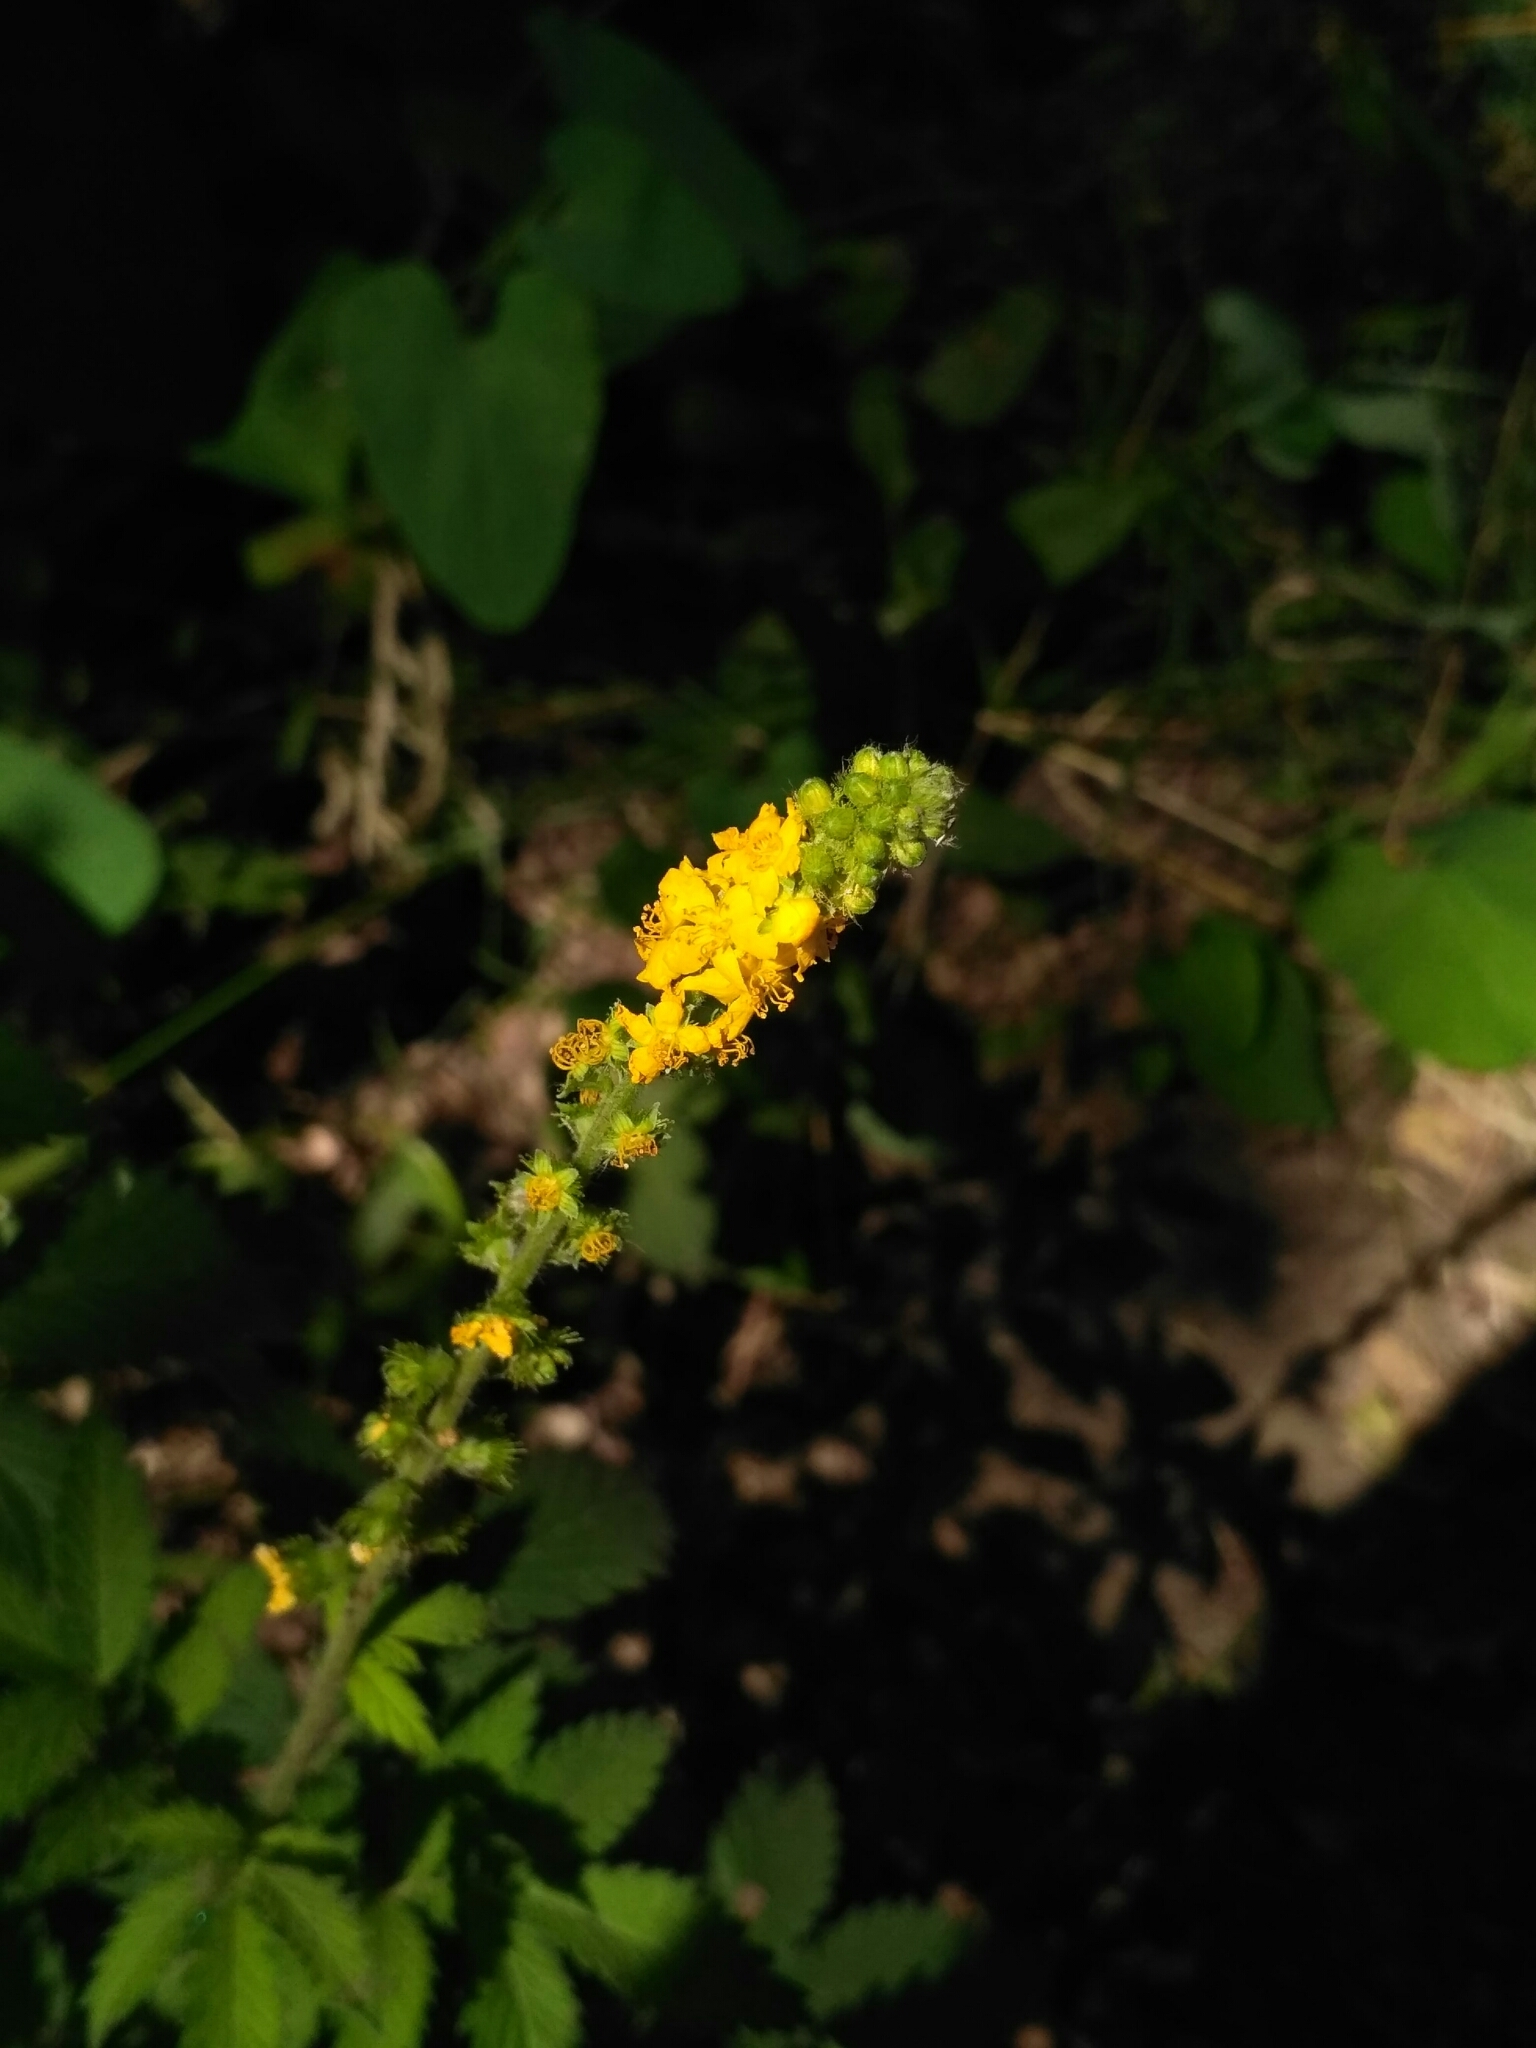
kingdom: Plantae
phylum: Tracheophyta
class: Magnoliopsida
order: Rosales
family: Rosaceae
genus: Agrimonia
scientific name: Agrimonia eupatoria
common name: Agrimony
